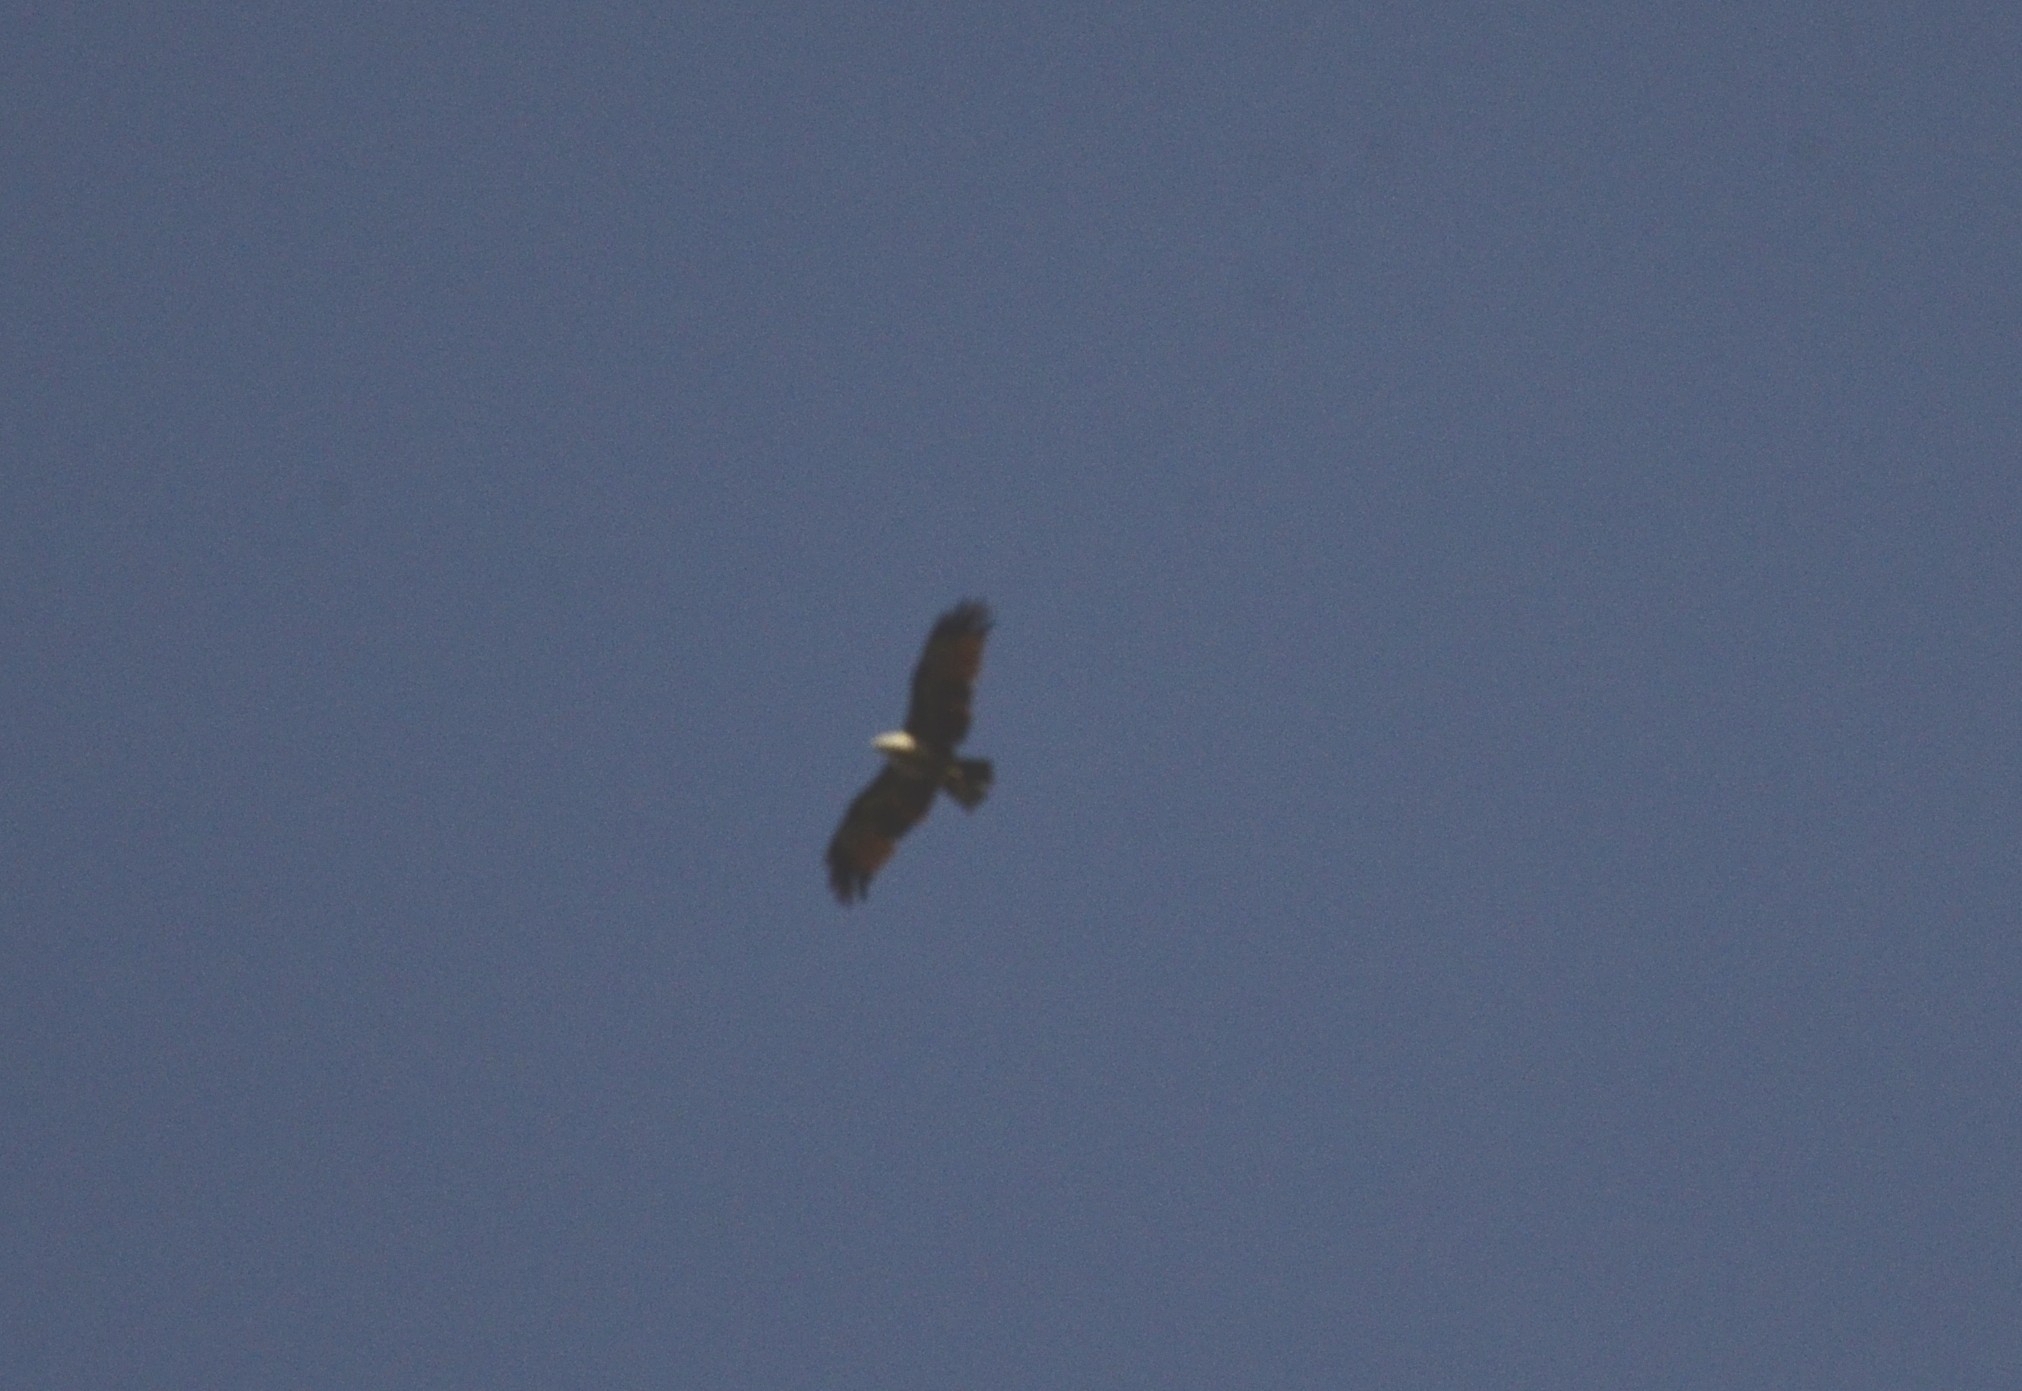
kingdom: Animalia
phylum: Chordata
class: Aves
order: Accipitriformes
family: Accipitridae
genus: Haliastur
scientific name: Haliastur indus
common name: Brahminy kite
